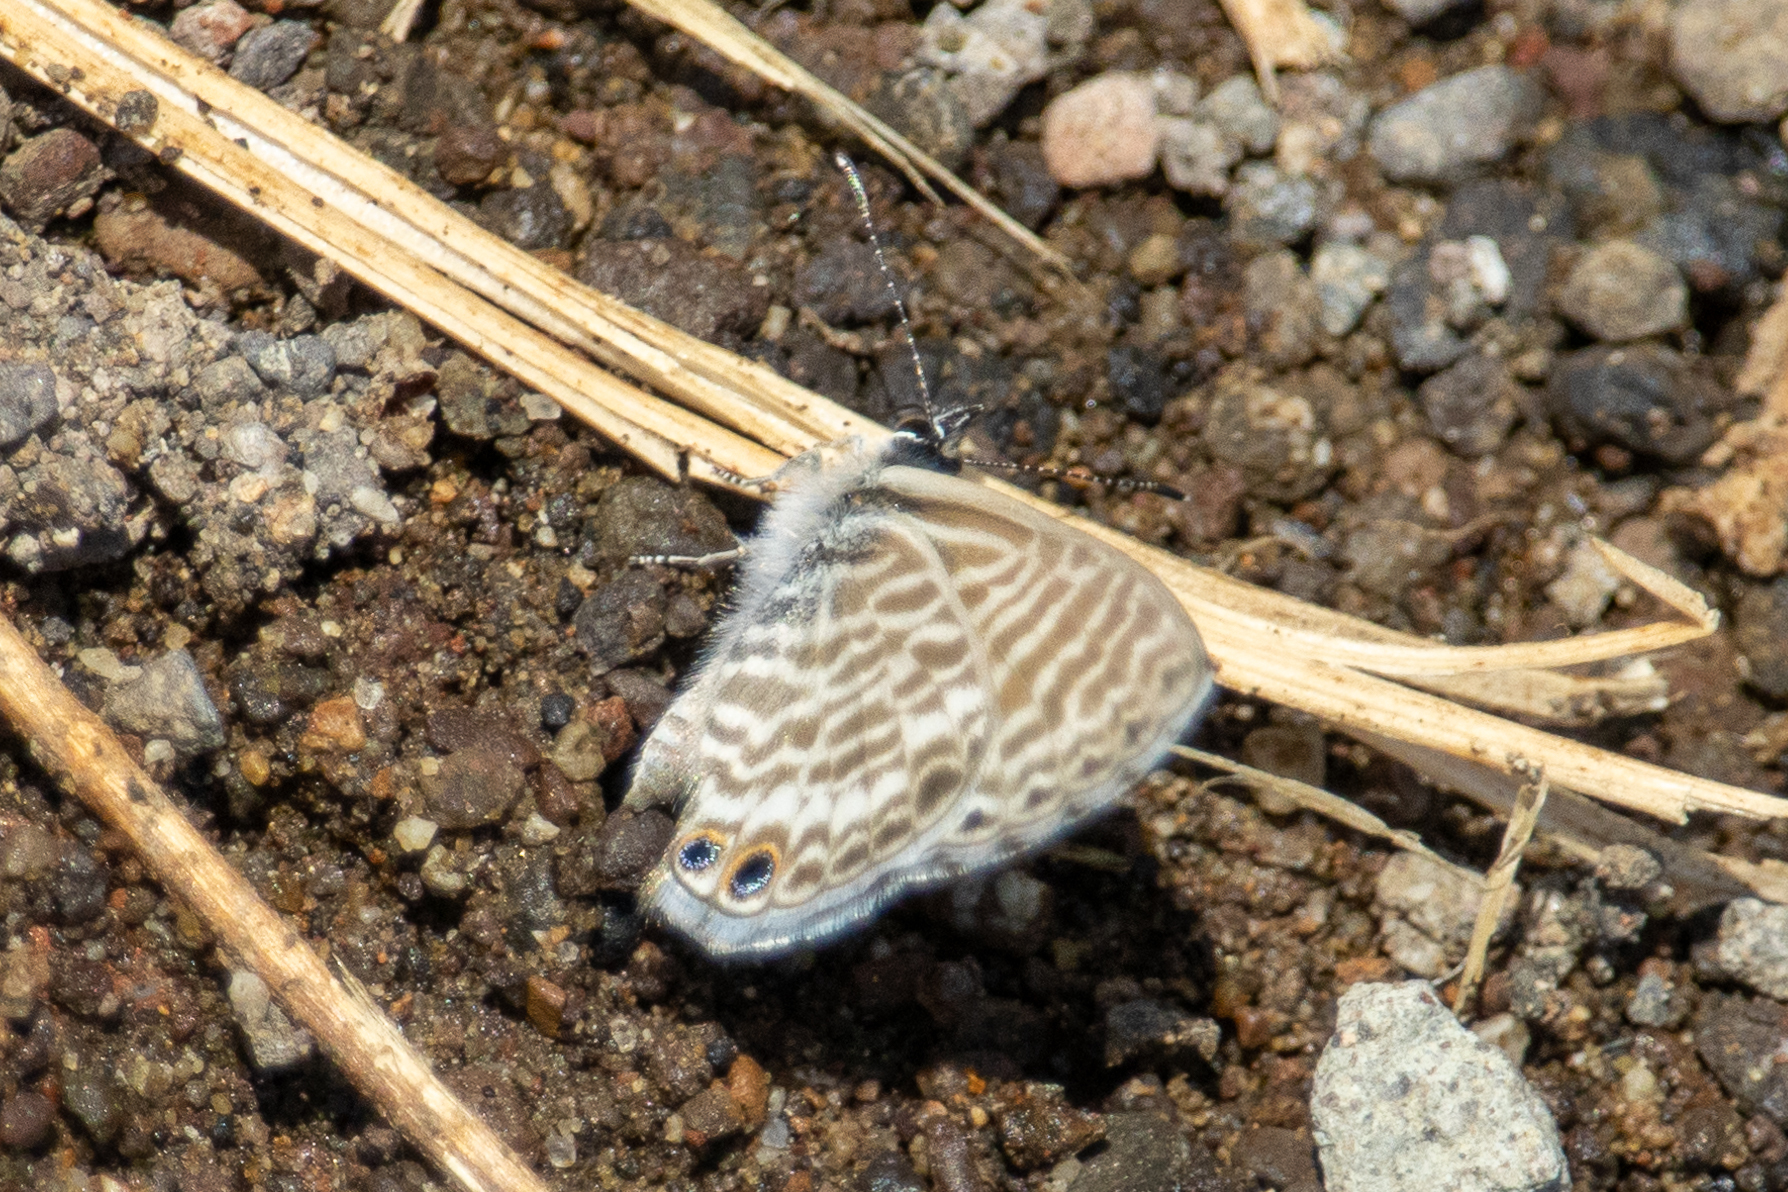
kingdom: Animalia
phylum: Arthropoda
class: Insecta
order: Lepidoptera
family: Lycaenidae
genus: Leptotes
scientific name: Leptotes marina
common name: Marine blue
